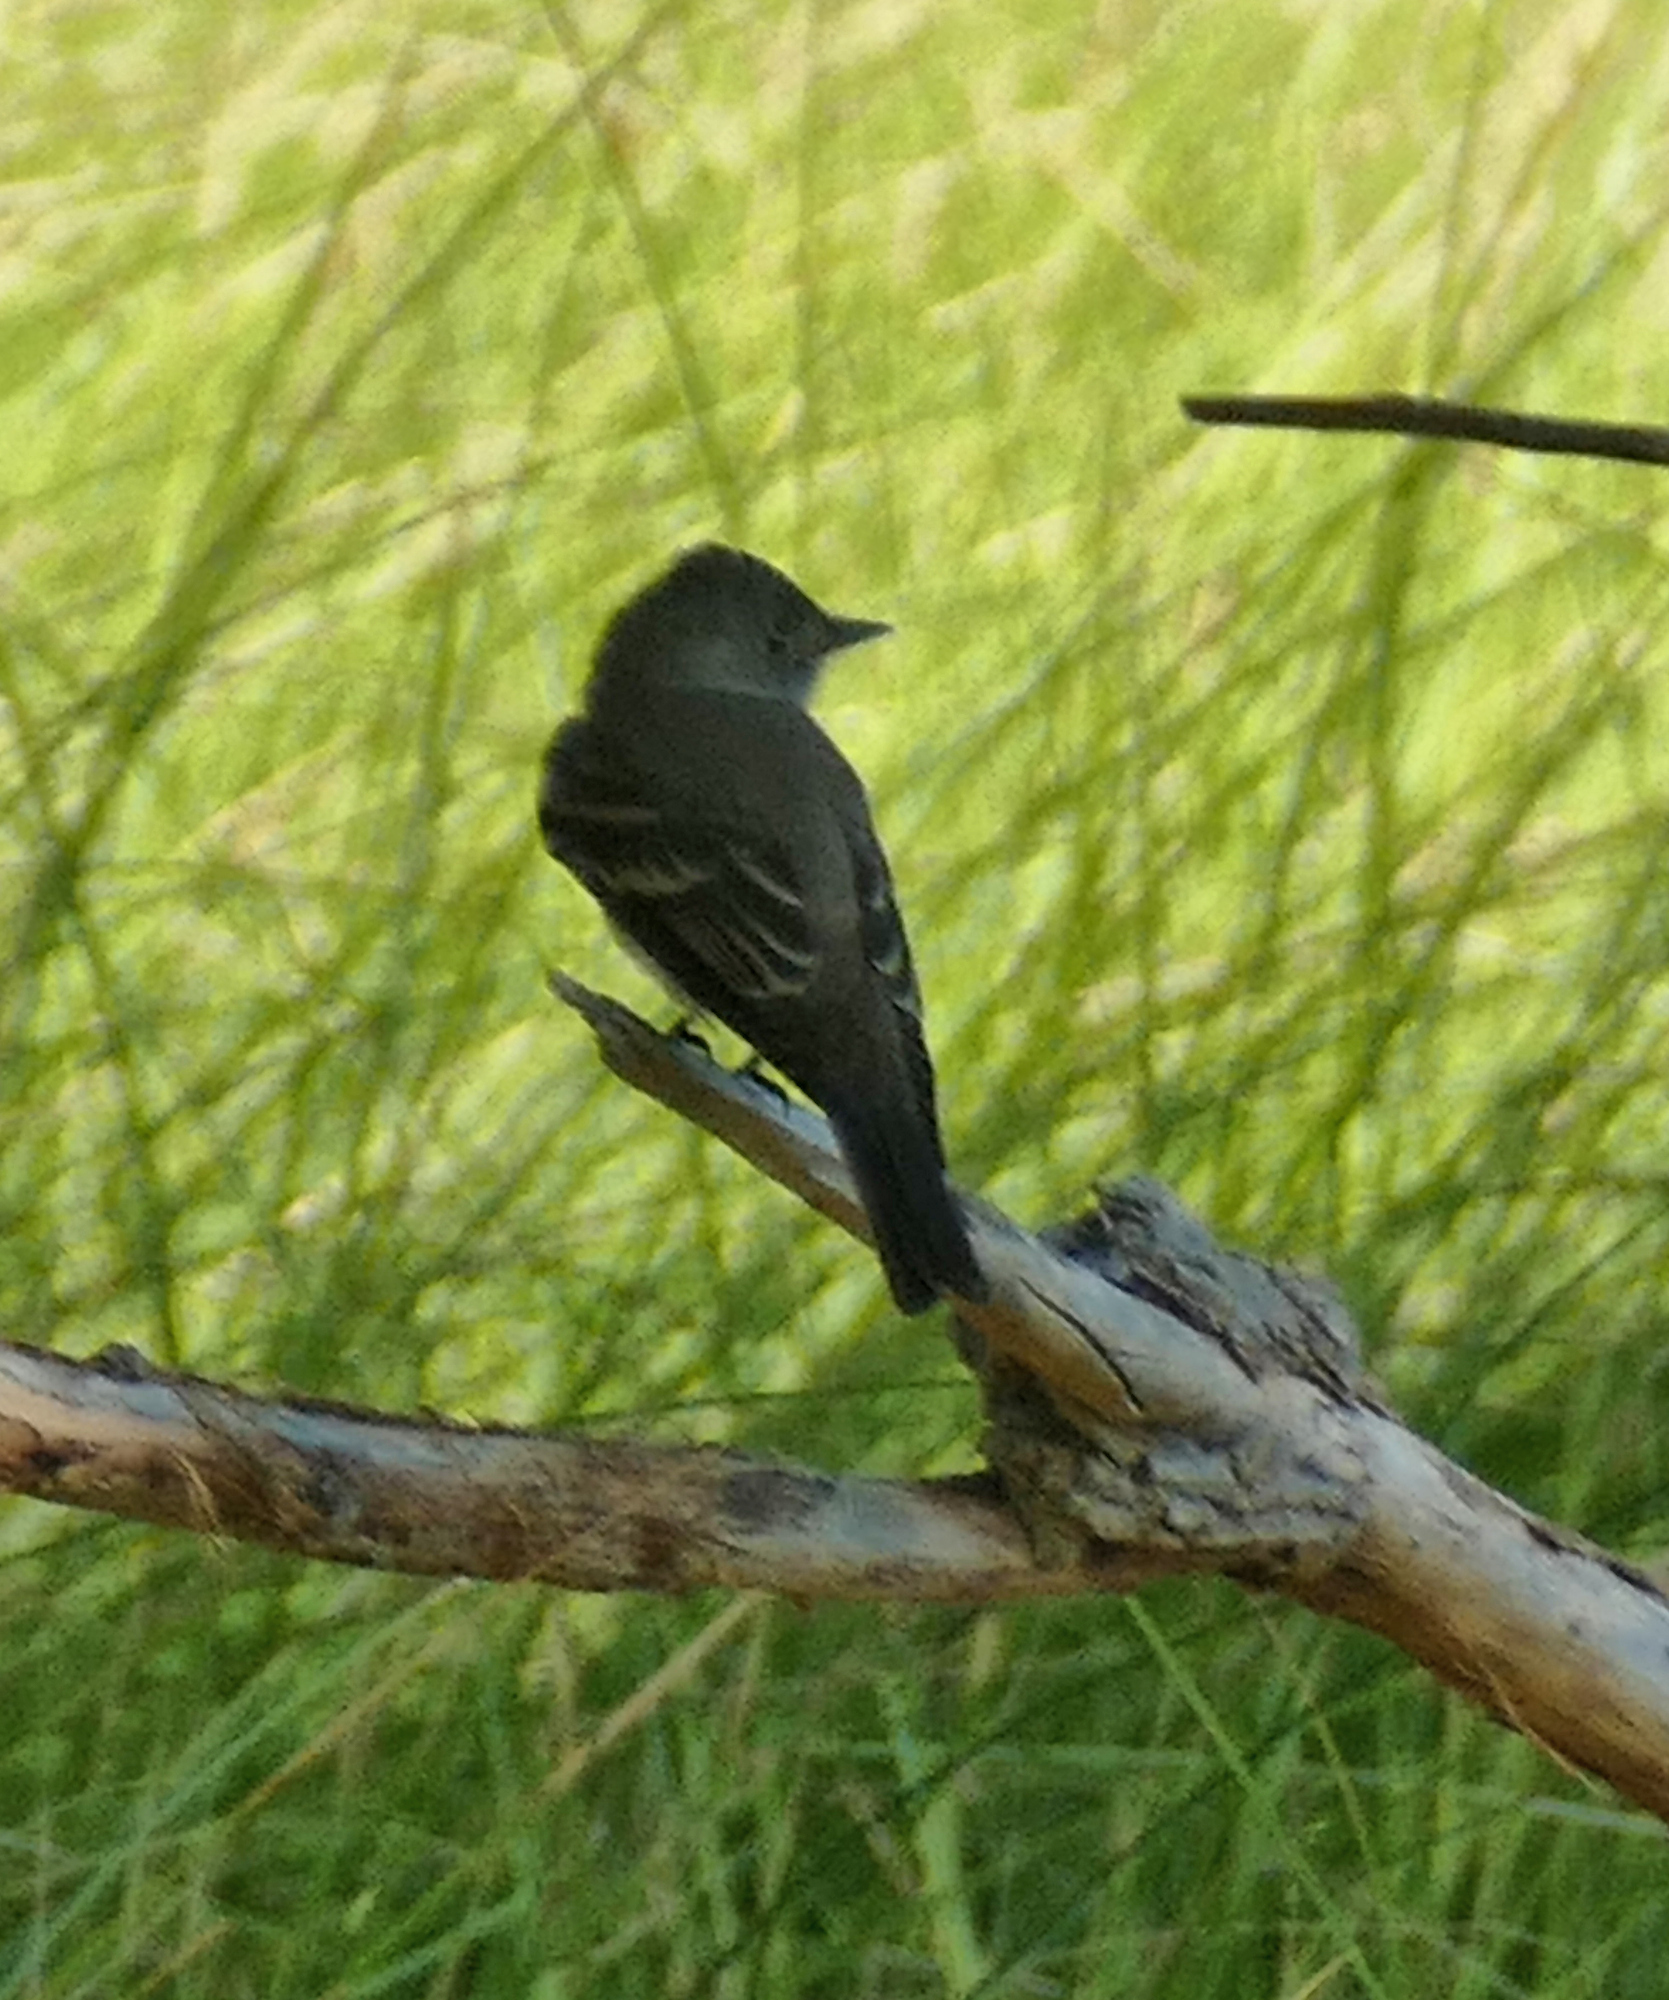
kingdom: Animalia
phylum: Chordata
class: Aves
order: Passeriformes
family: Tyrannidae
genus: Contopus
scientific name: Contopus sordidulus
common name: Western wood-pewee
